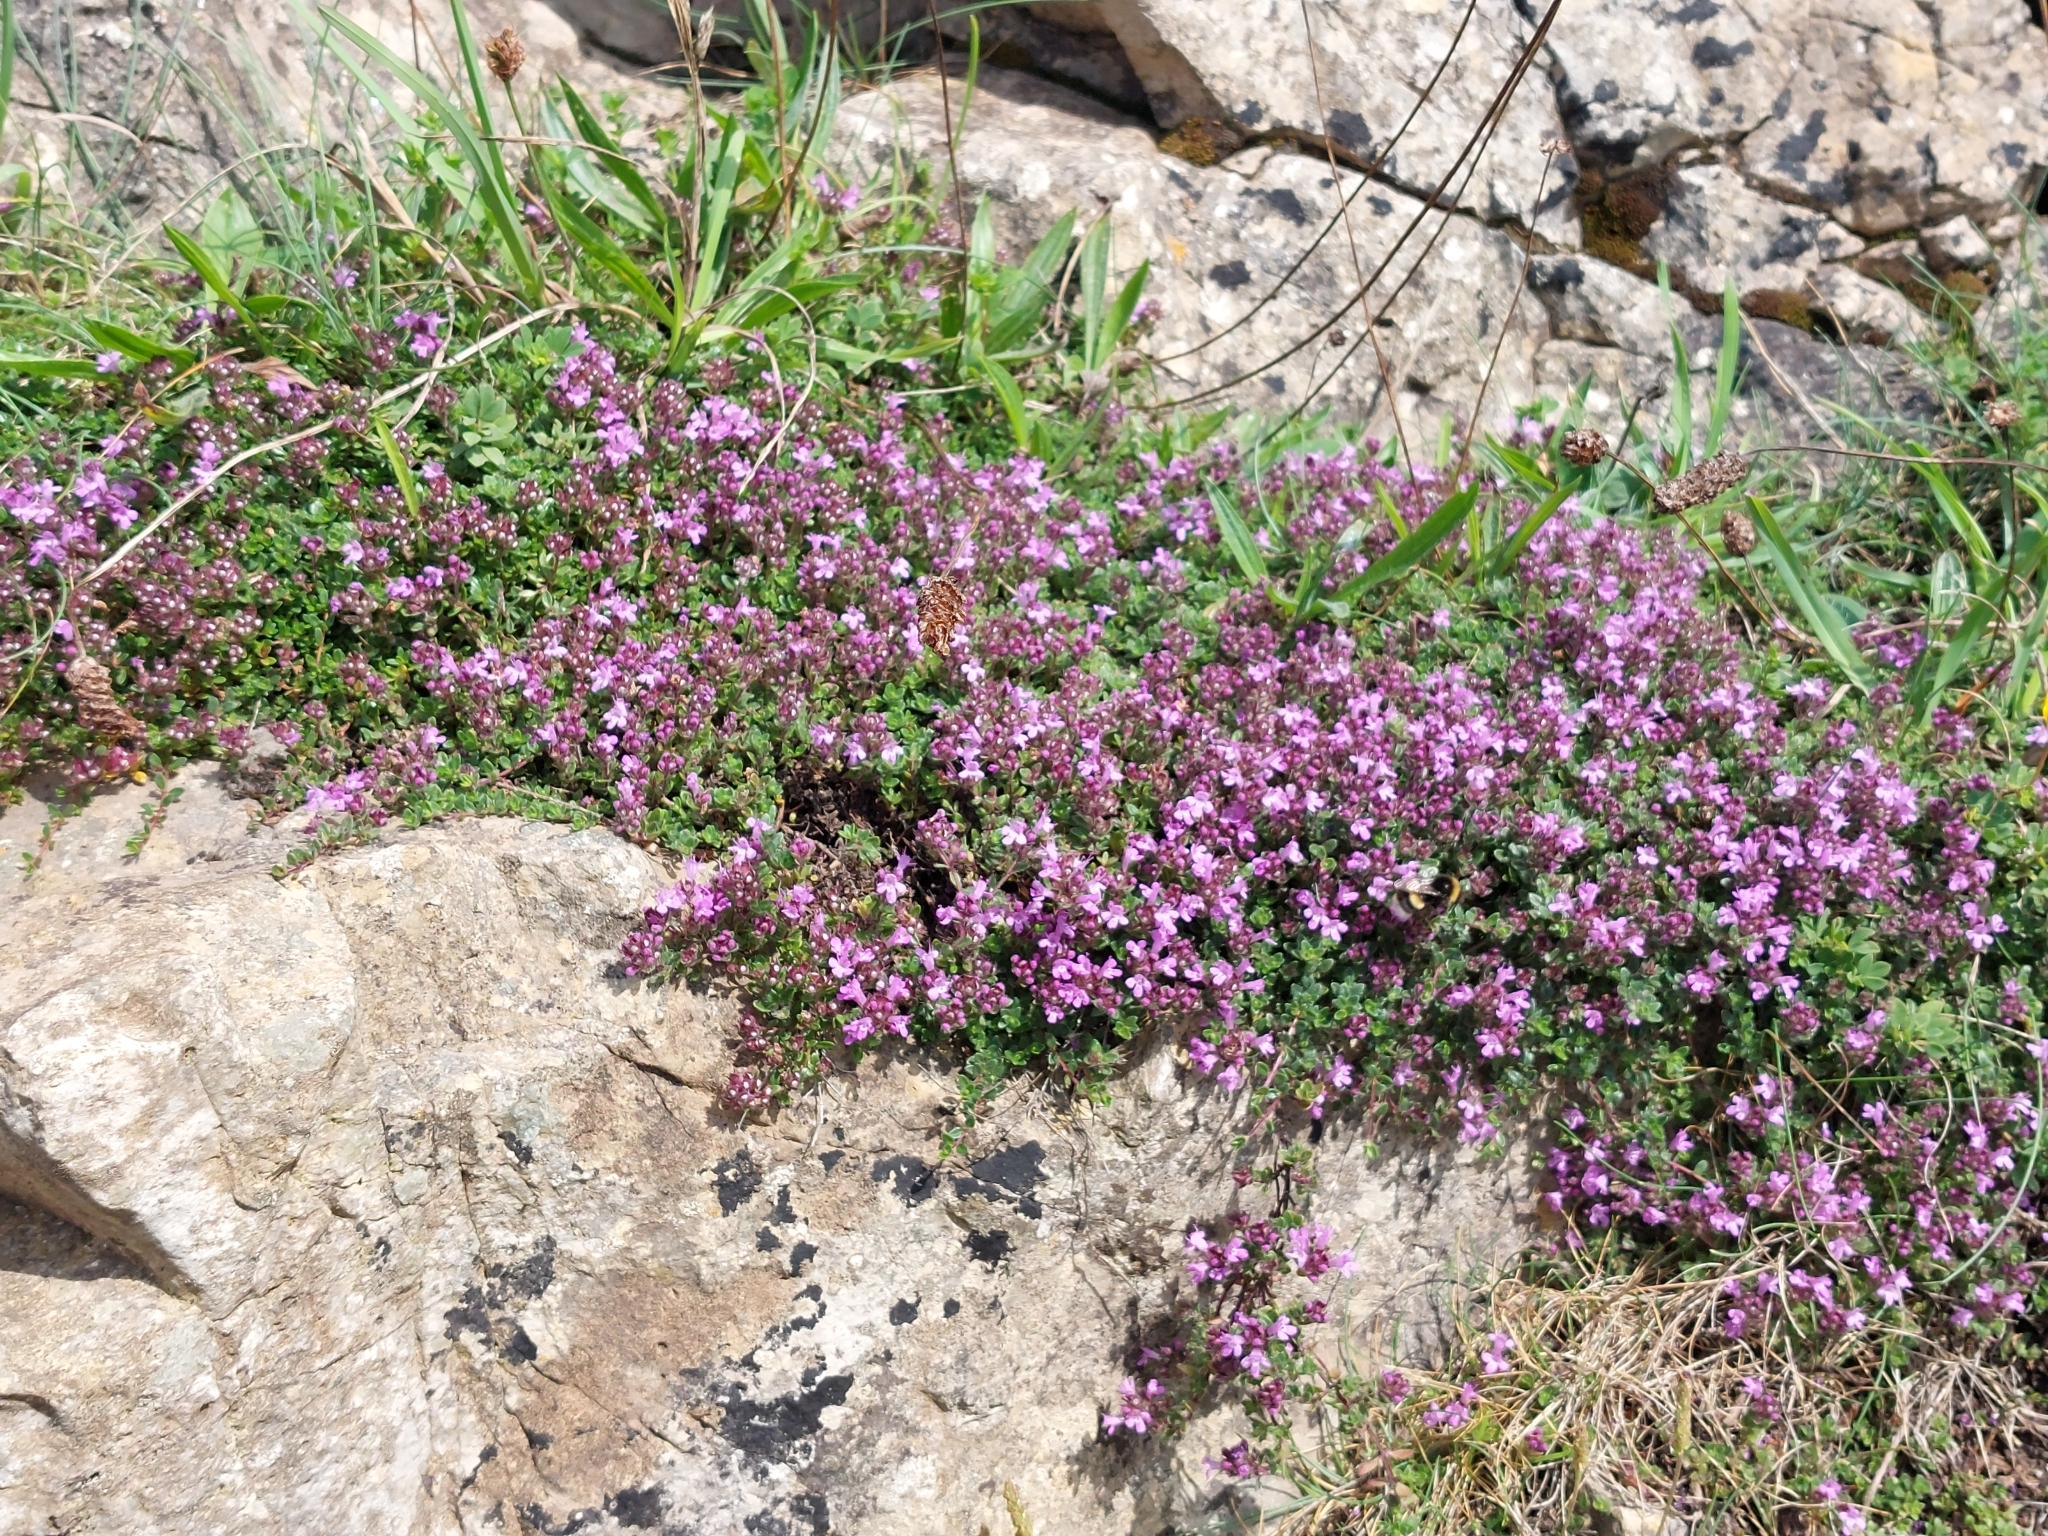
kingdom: Plantae
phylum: Tracheophyta
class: Magnoliopsida
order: Lamiales
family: Lamiaceae
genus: Thymus
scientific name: Thymus praecox
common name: Wild thyme
